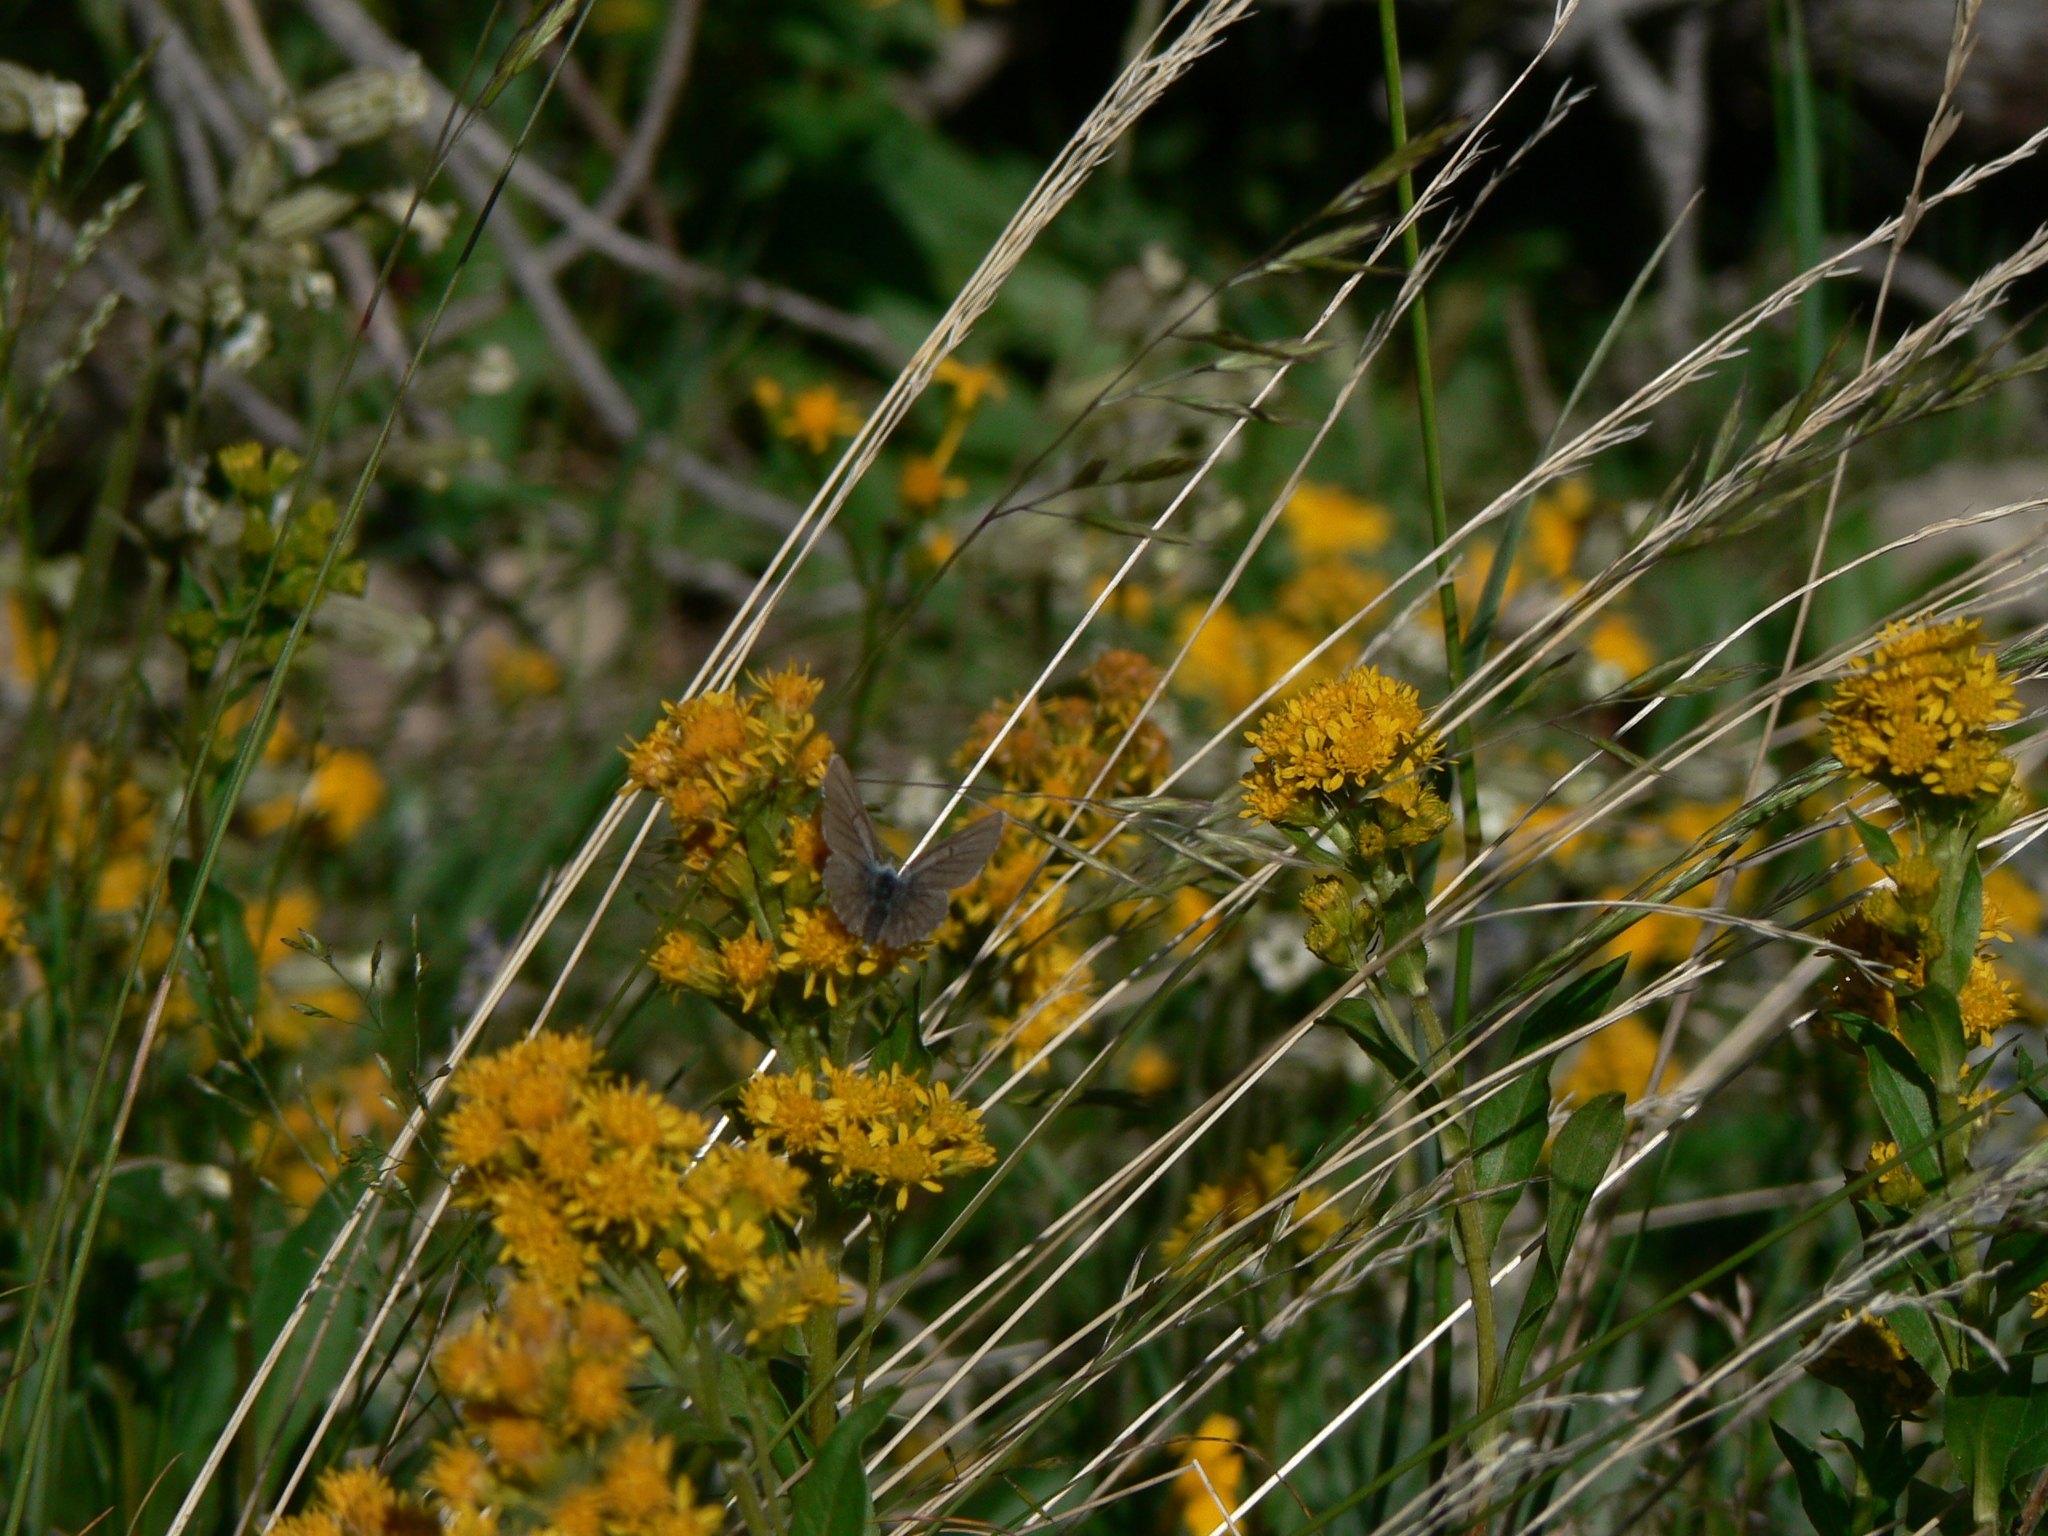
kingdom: Animalia
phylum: Arthropoda
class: Insecta
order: Lepidoptera
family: Lycaenidae
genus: Tharsalea
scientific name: Tharsalea heteronea
